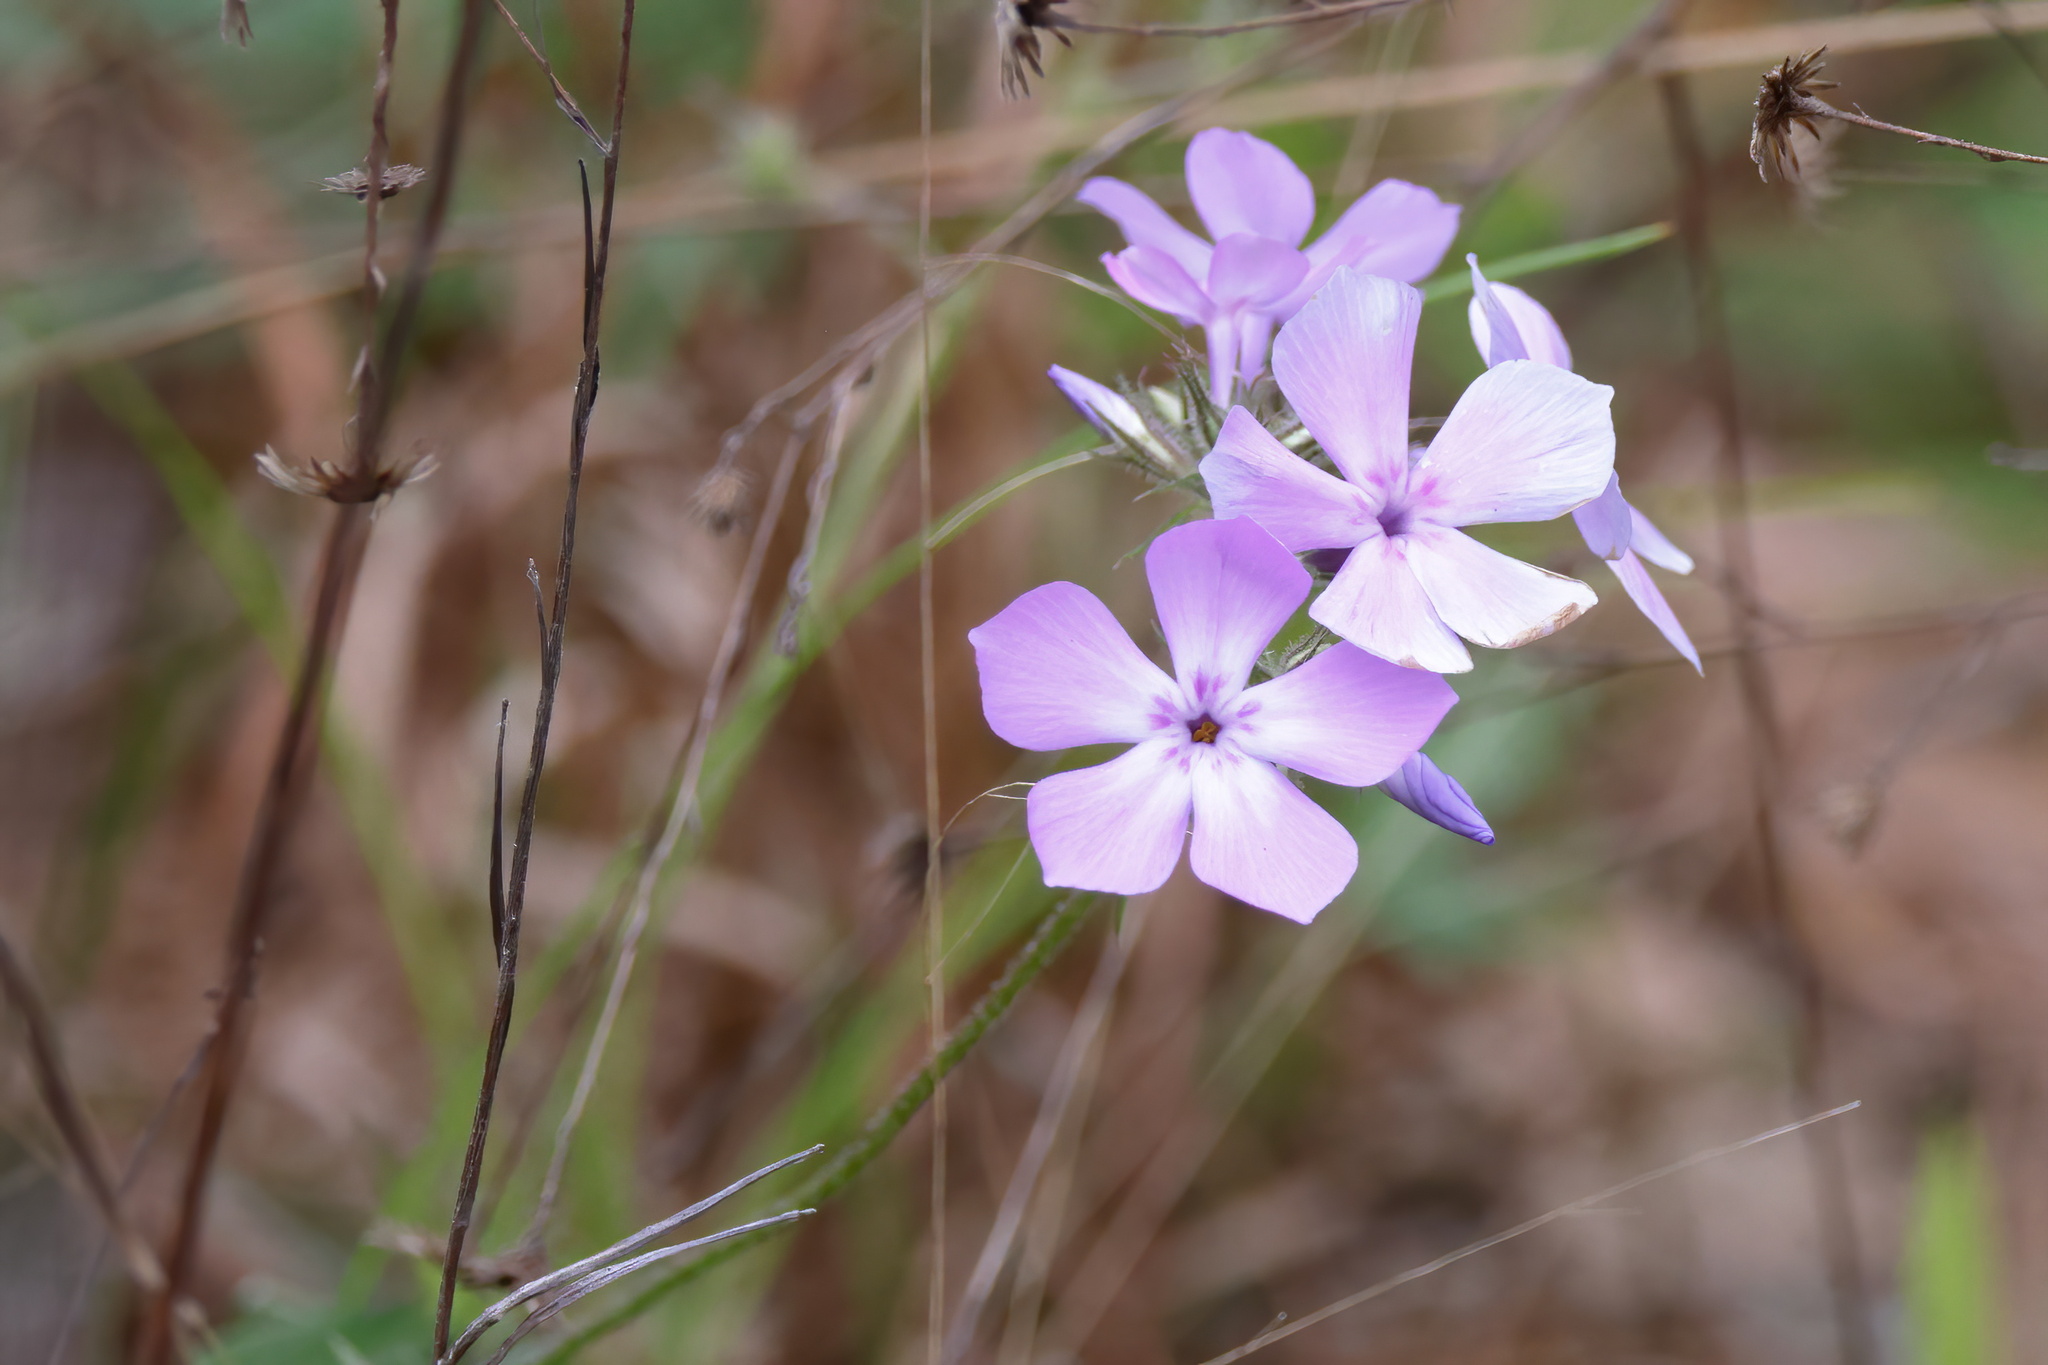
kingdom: Plantae
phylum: Tracheophyta
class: Magnoliopsida
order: Ericales
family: Polemoniaceae
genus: Phlox
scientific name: Phlox pilosa
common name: Prairie phlox
